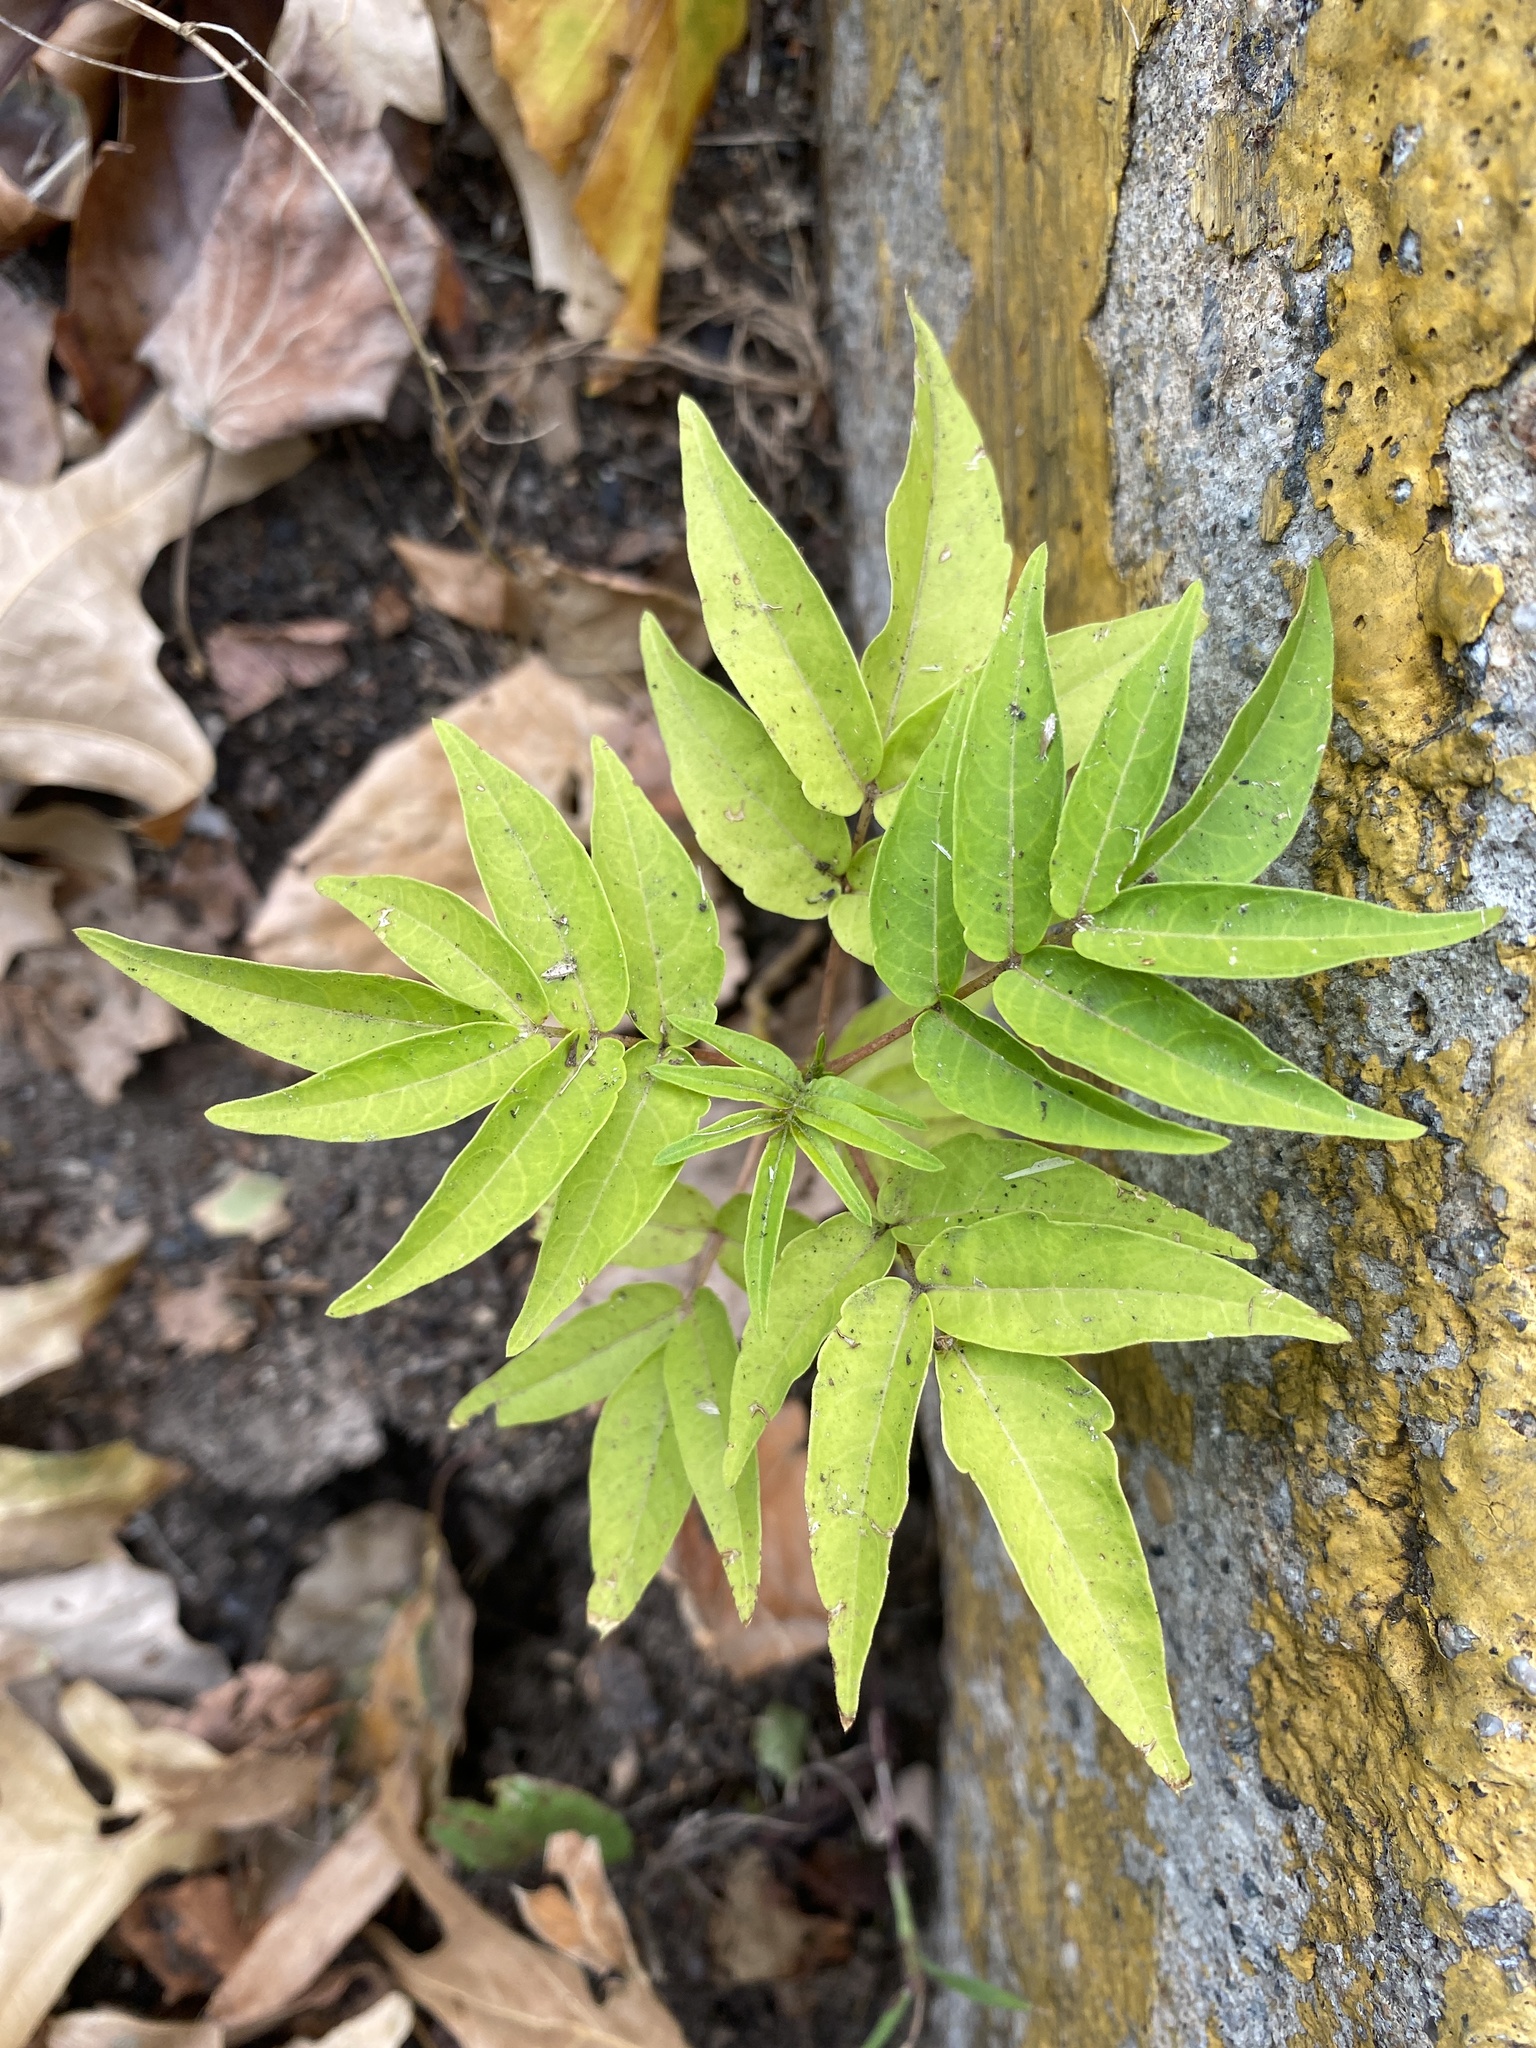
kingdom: Plantae
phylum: Tracheophyta
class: Magnoliopsida
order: Sapindales
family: Simaroubaceae
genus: Ailanthus
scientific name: Ailanthus altissima
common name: Tree-of-heaven
